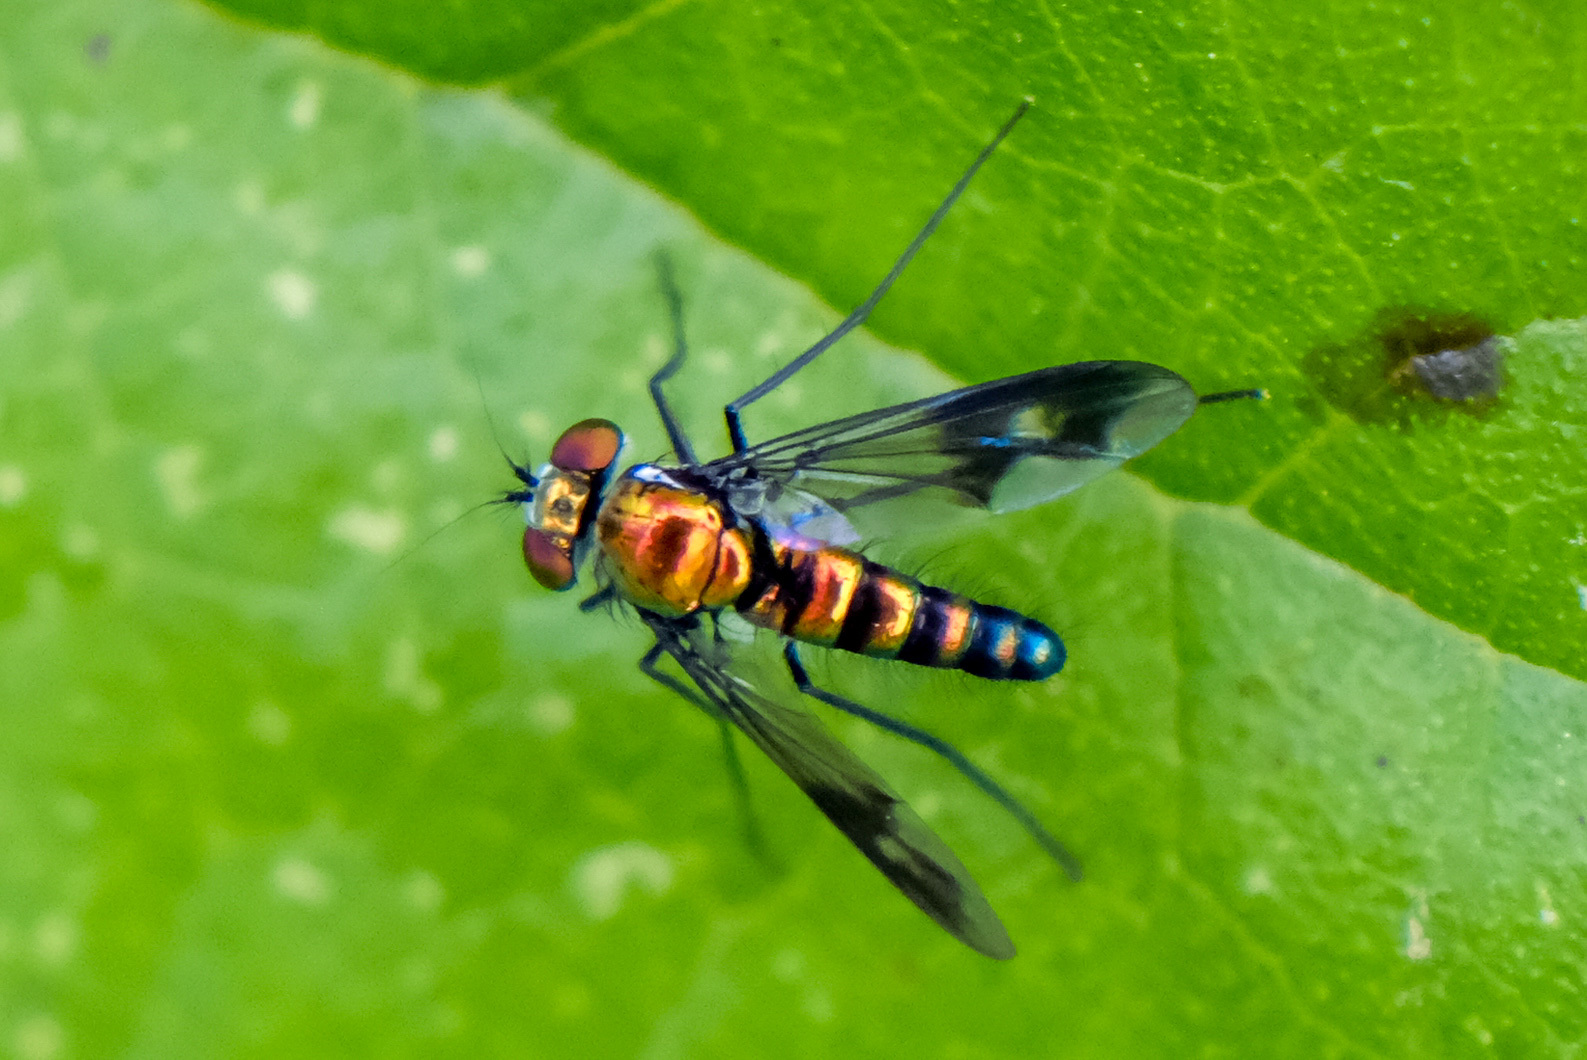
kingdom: Animalia
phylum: Arthropoda
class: Insecta
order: Diptera
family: Dolichopodidae
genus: Condylostylus
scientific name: Condylostylus patibulatus
